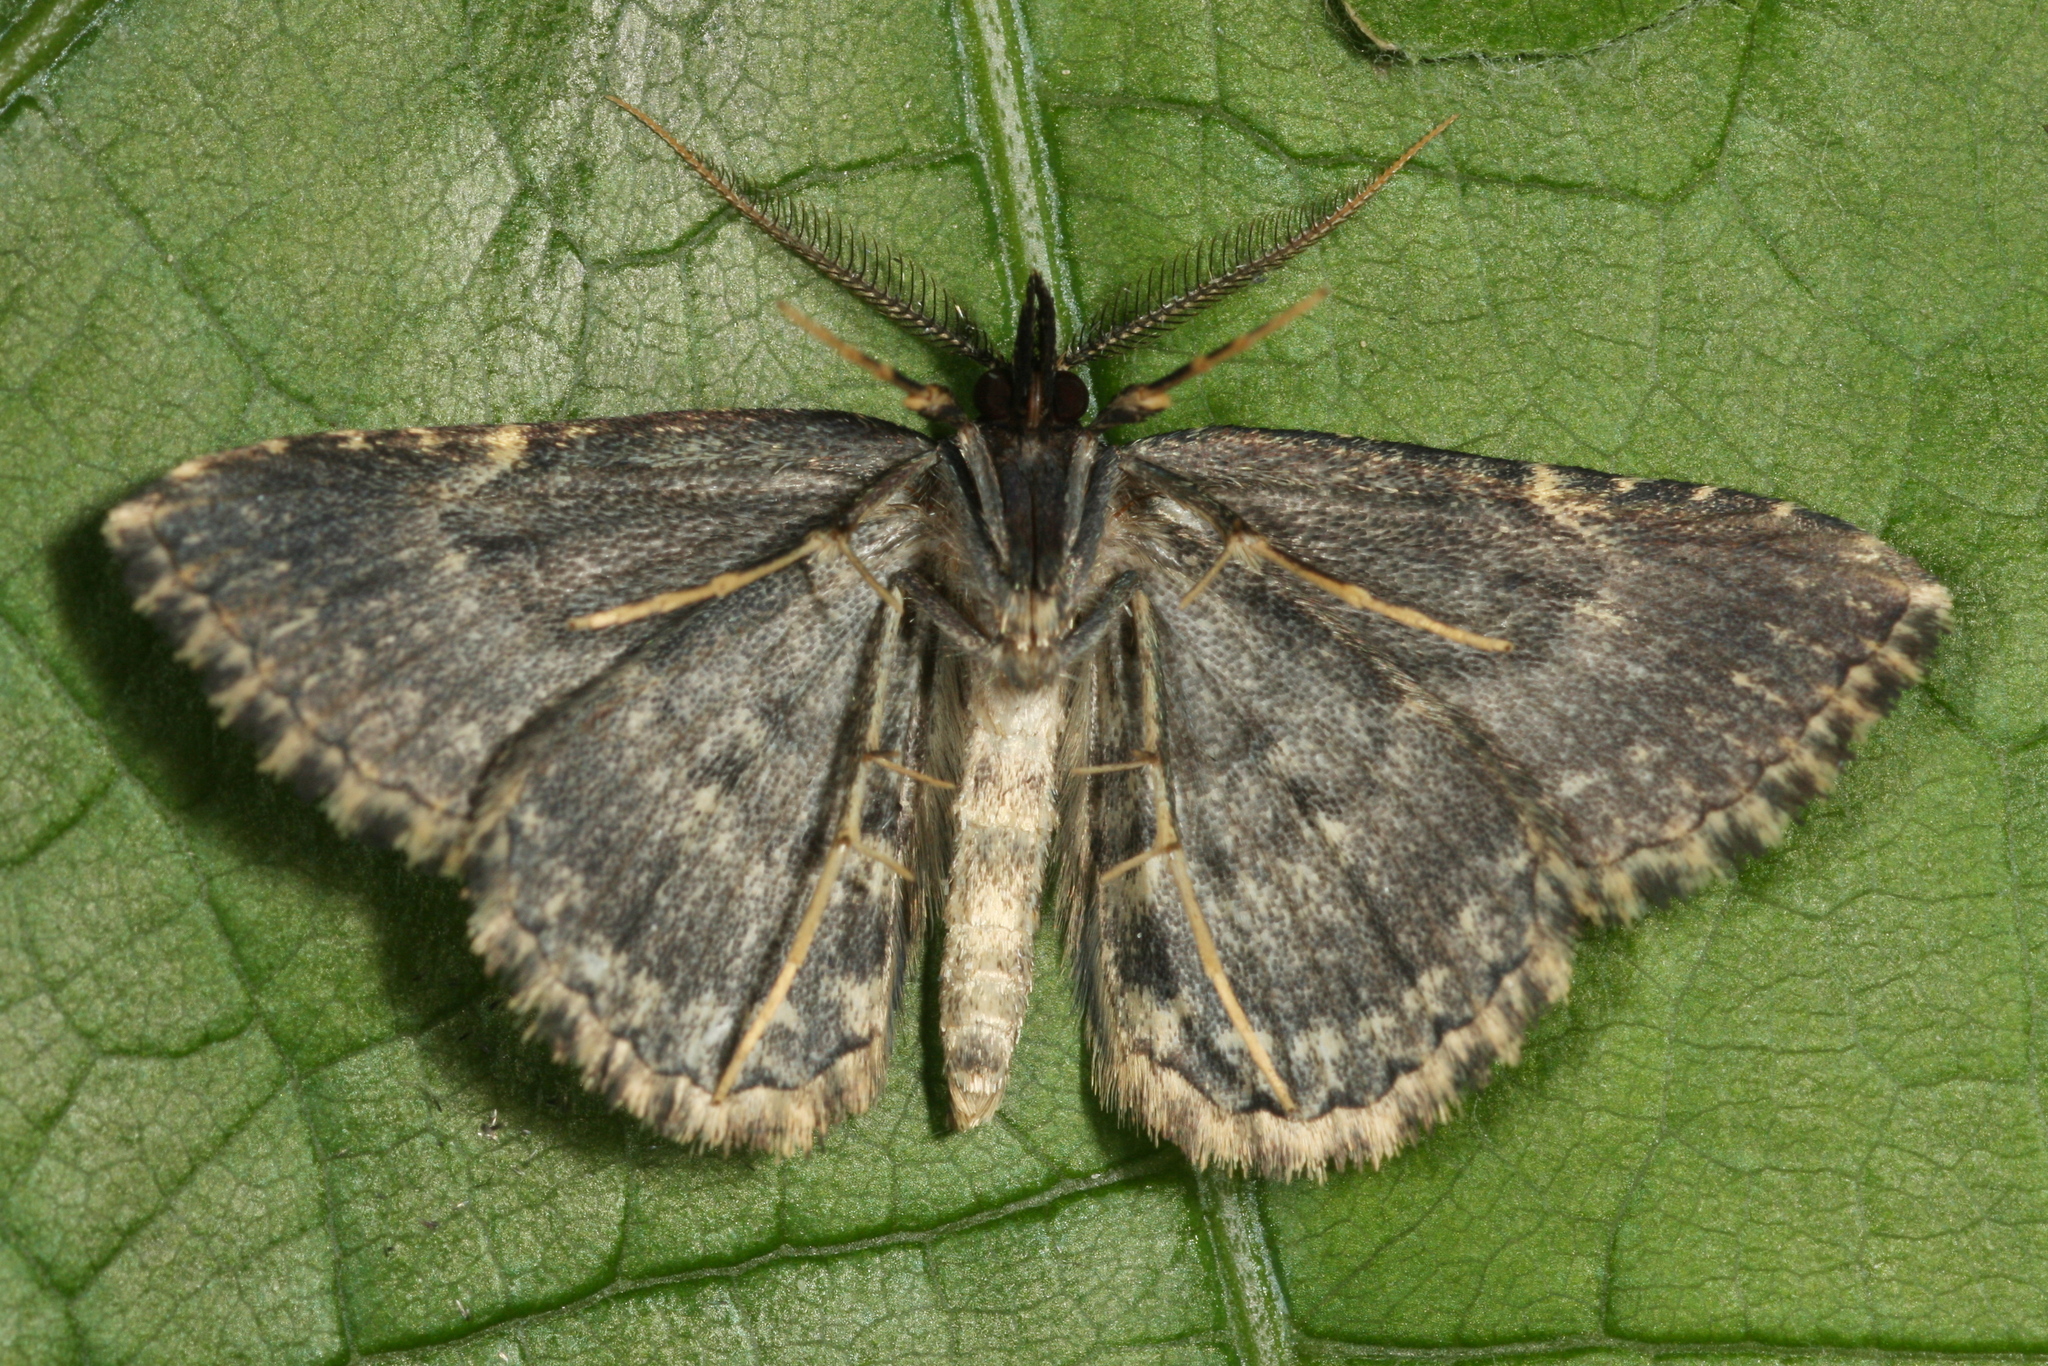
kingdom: Animalia
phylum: Arthropoda
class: Insecta
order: Lepidoptera
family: Erebidae
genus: Parascotia
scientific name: Parascotia fuliginaria
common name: Waved black
